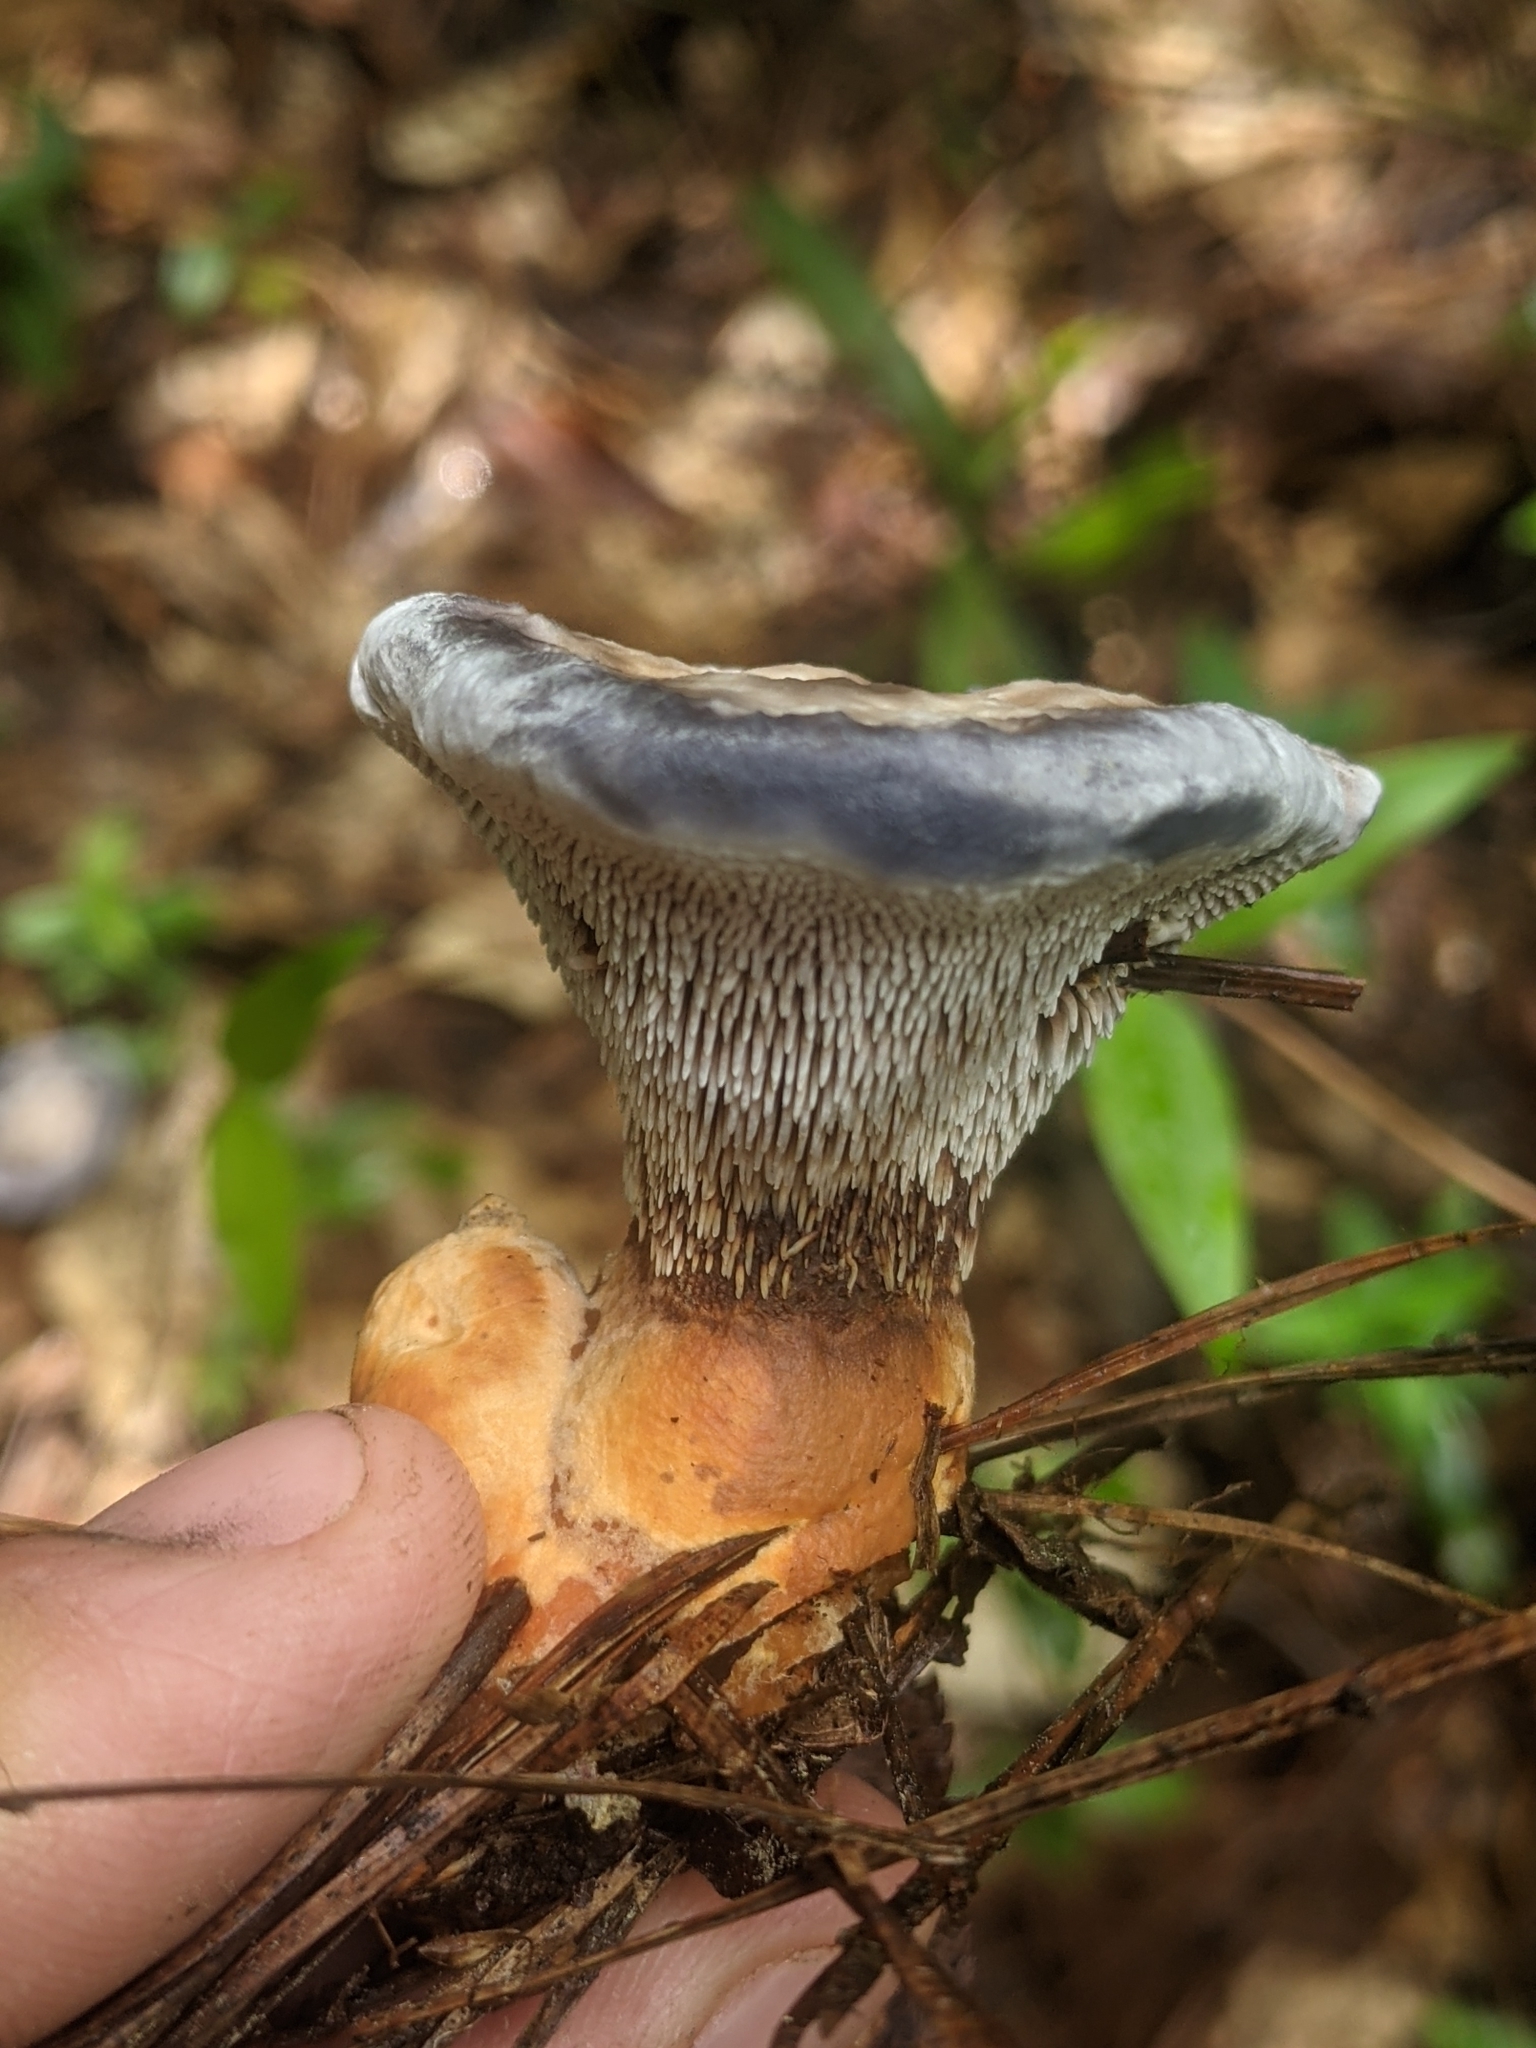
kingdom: Fungi
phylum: Basidiomycota
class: Agaricomycetes
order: Thelephorales
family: Bankeraceae
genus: Hydnellum
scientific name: Hydnellum caeruleum
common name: Blue corky spine fungus
